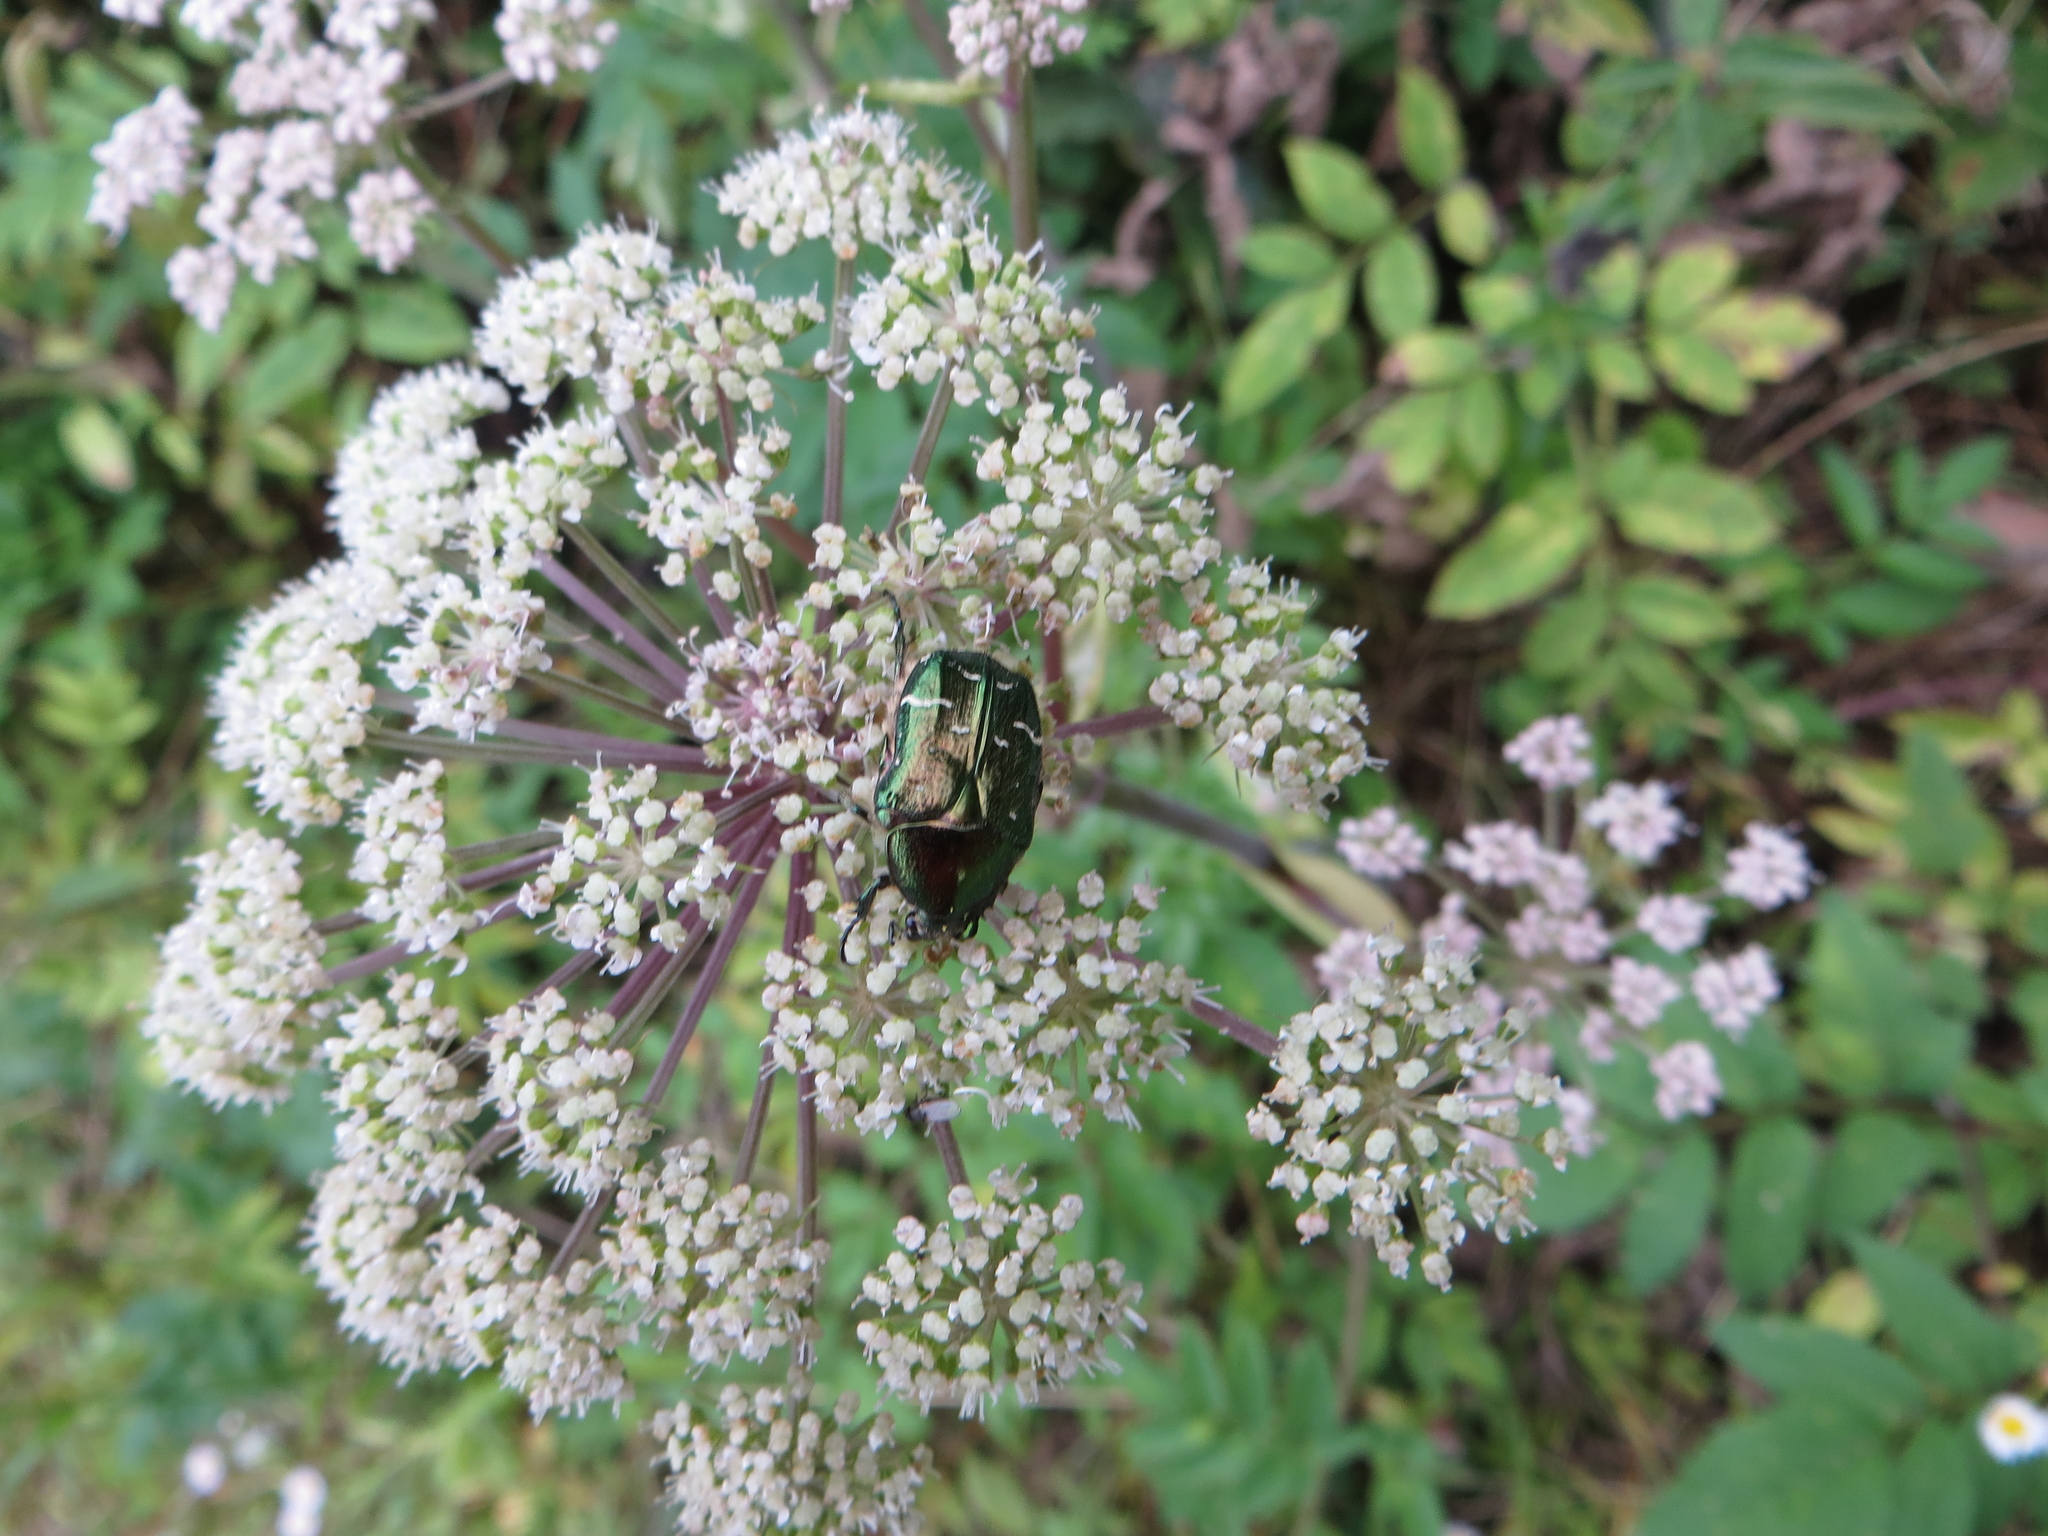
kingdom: Animalia
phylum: Arthropoda
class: Insecta
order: Coleoptera
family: Scarabaeidae
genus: Cetonia
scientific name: Cetonia aurata
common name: Rose chafer
